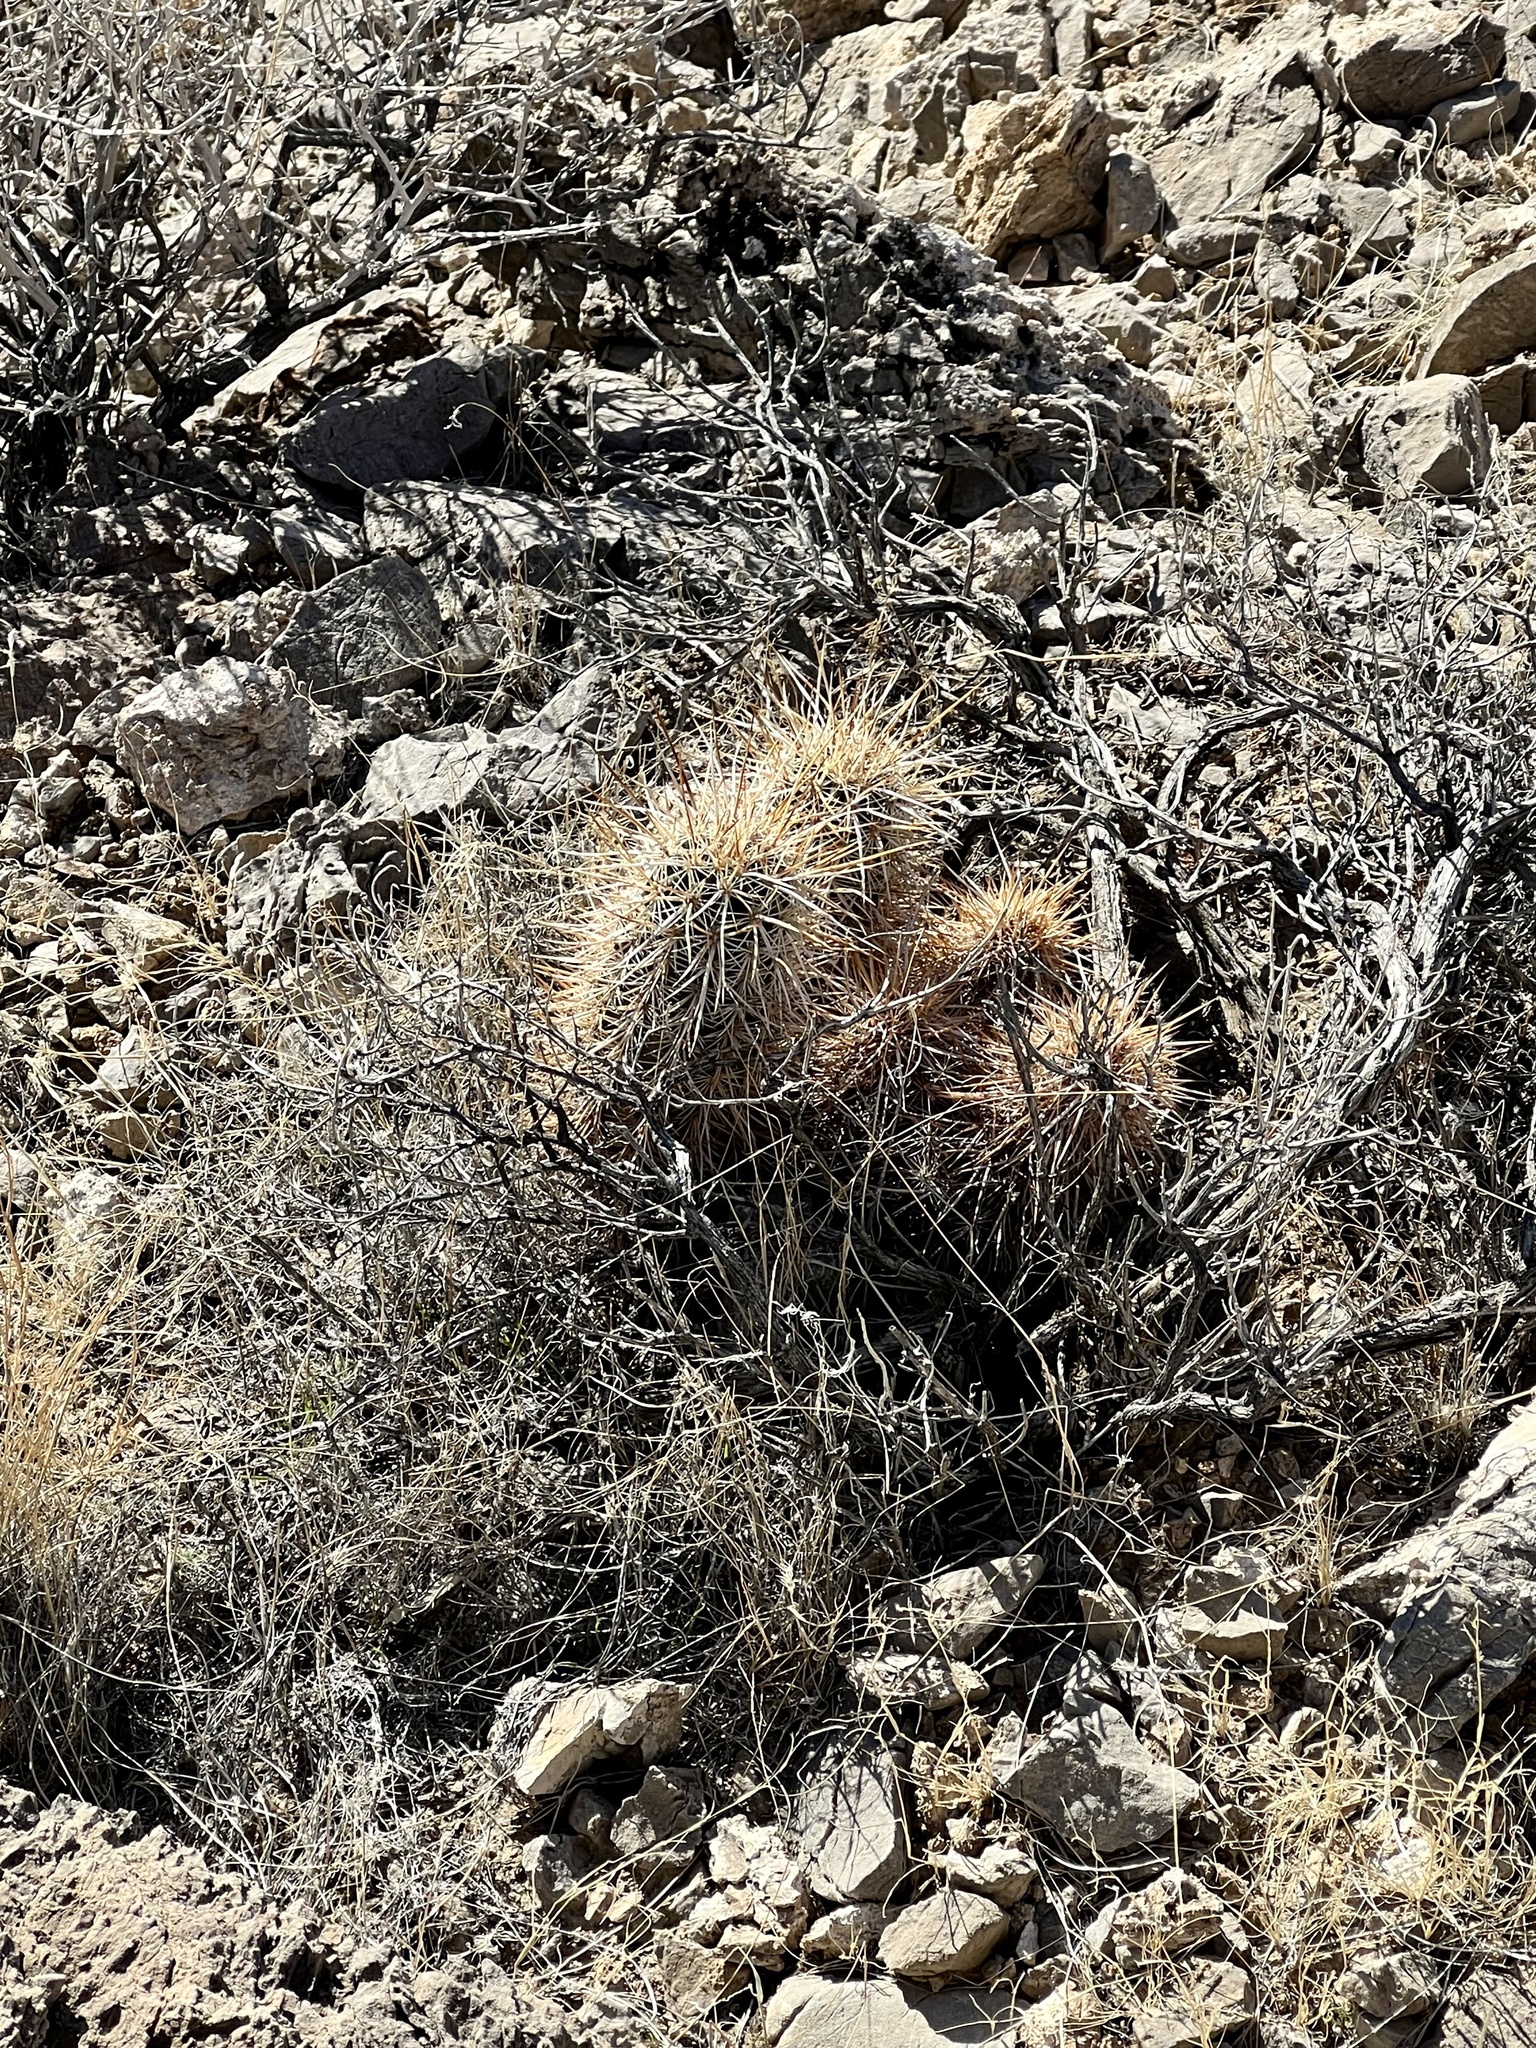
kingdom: Plantae
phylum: Tracheophyta
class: Magnoliopsida
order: Caryophyllales
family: Cactaceae
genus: Echinocereus
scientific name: Echinocereus engelmannii
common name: Engelmann's hedgehog cactus
